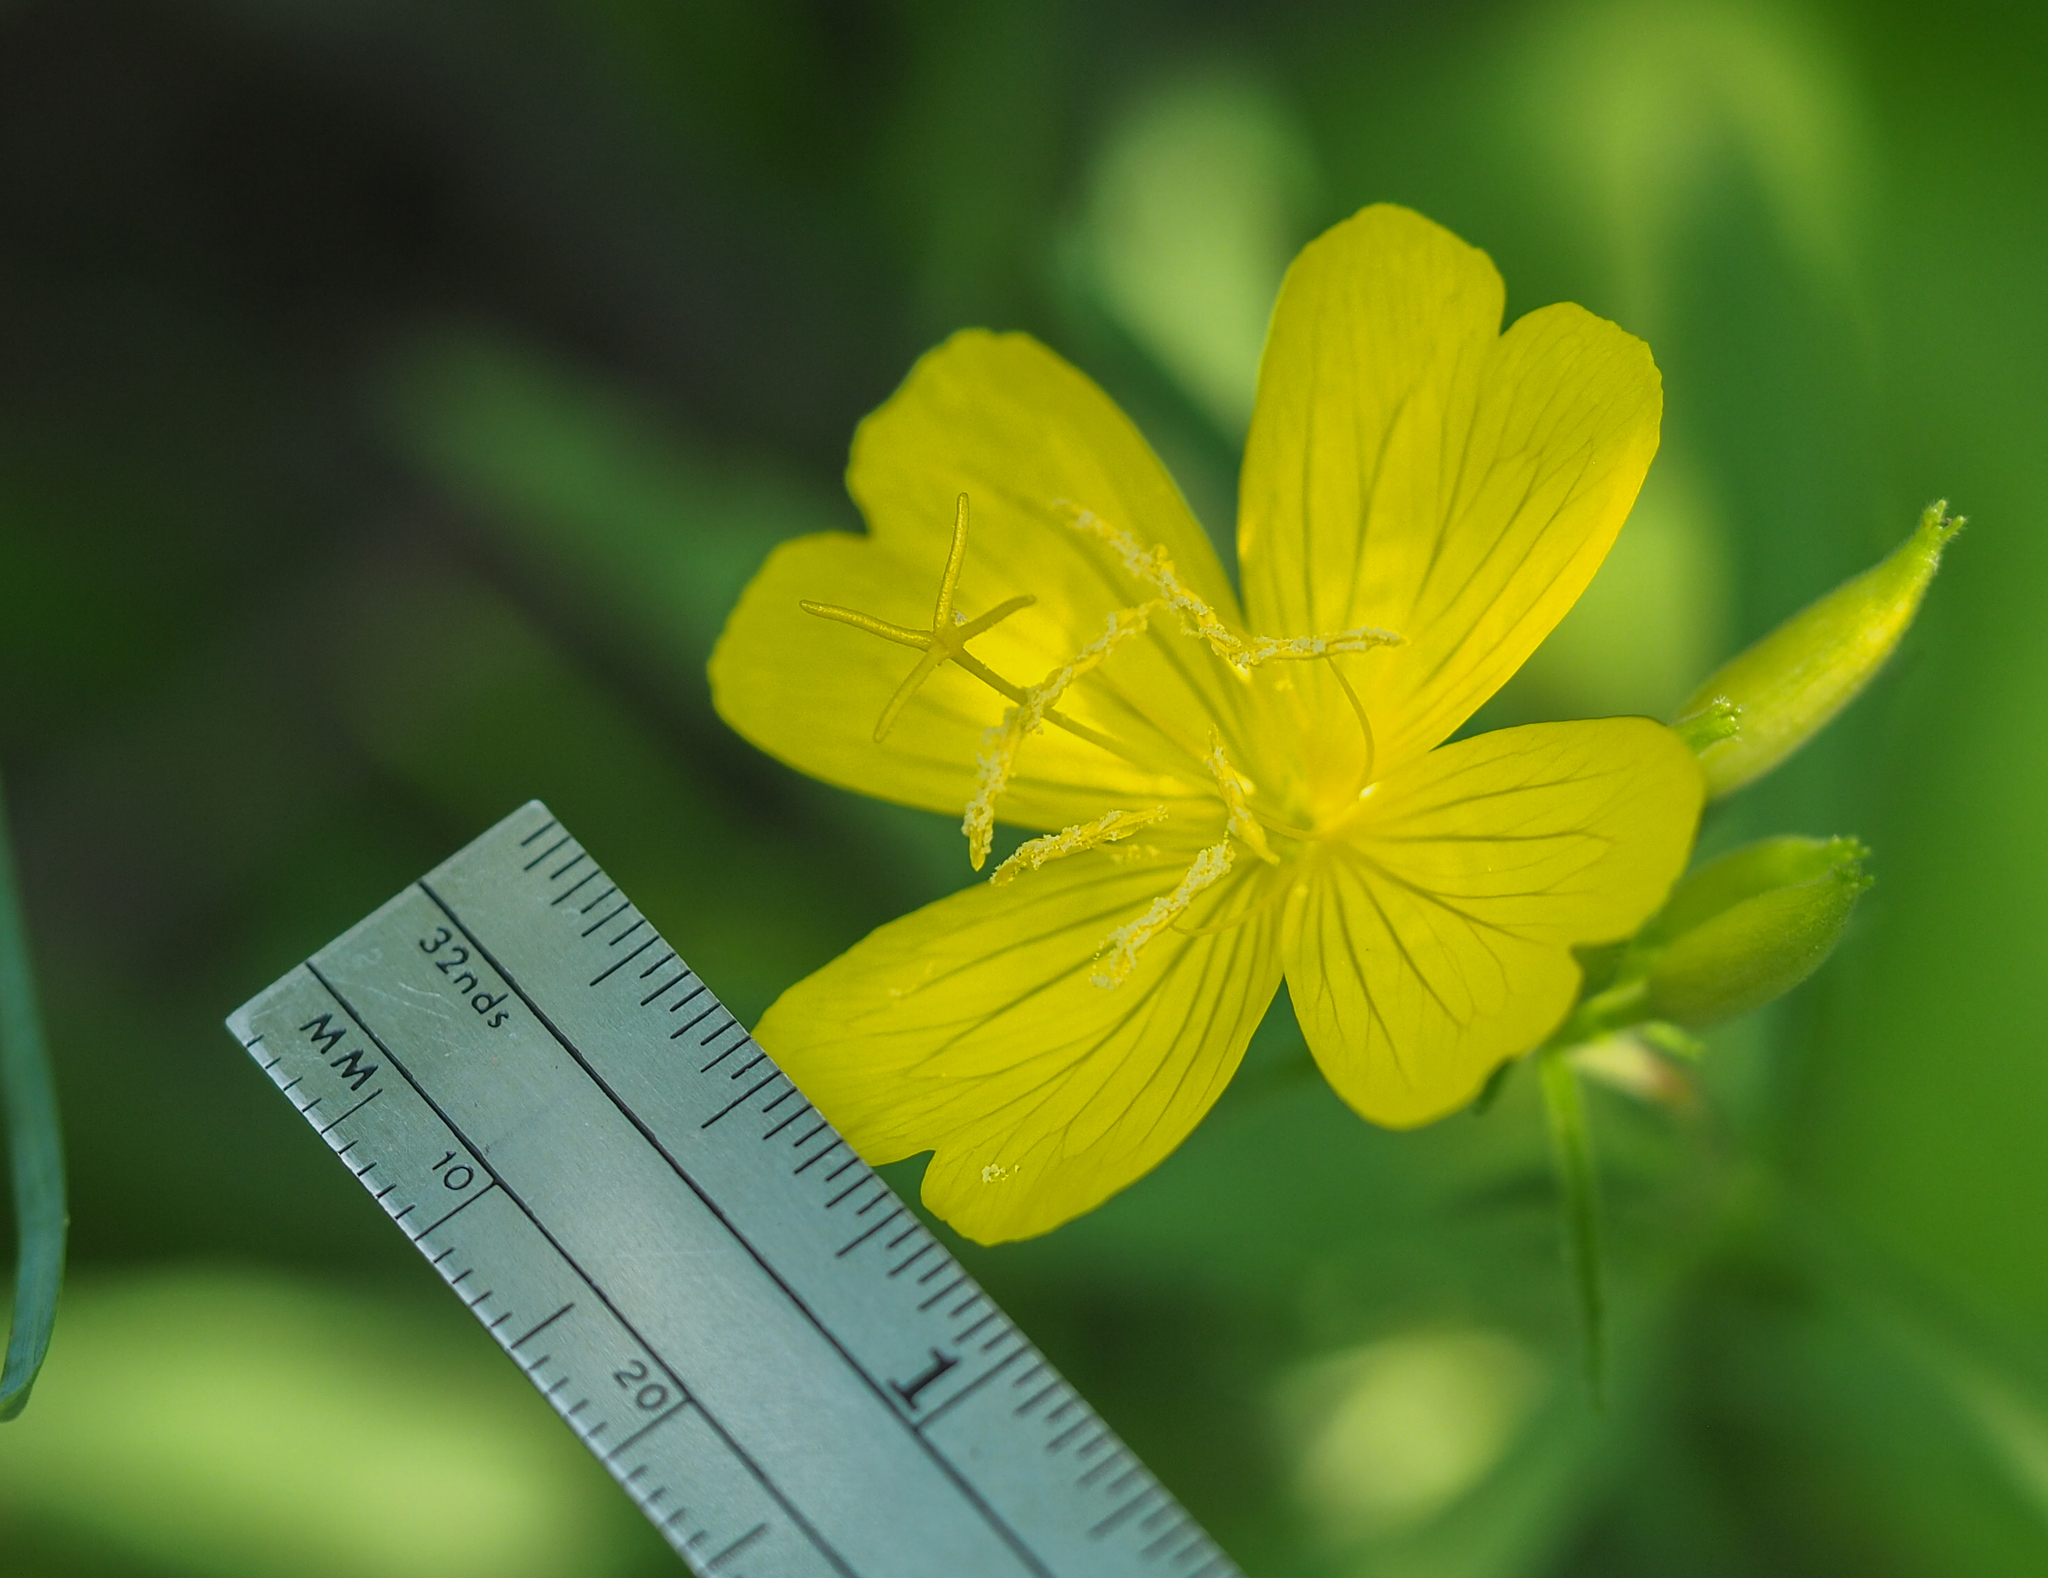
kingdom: Plantae
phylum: Tracheophyta
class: Magnoliopsida
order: Myrtales
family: Onagraceae
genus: Oenothera
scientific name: Oenothera fruticosa
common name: Southern sundrops
